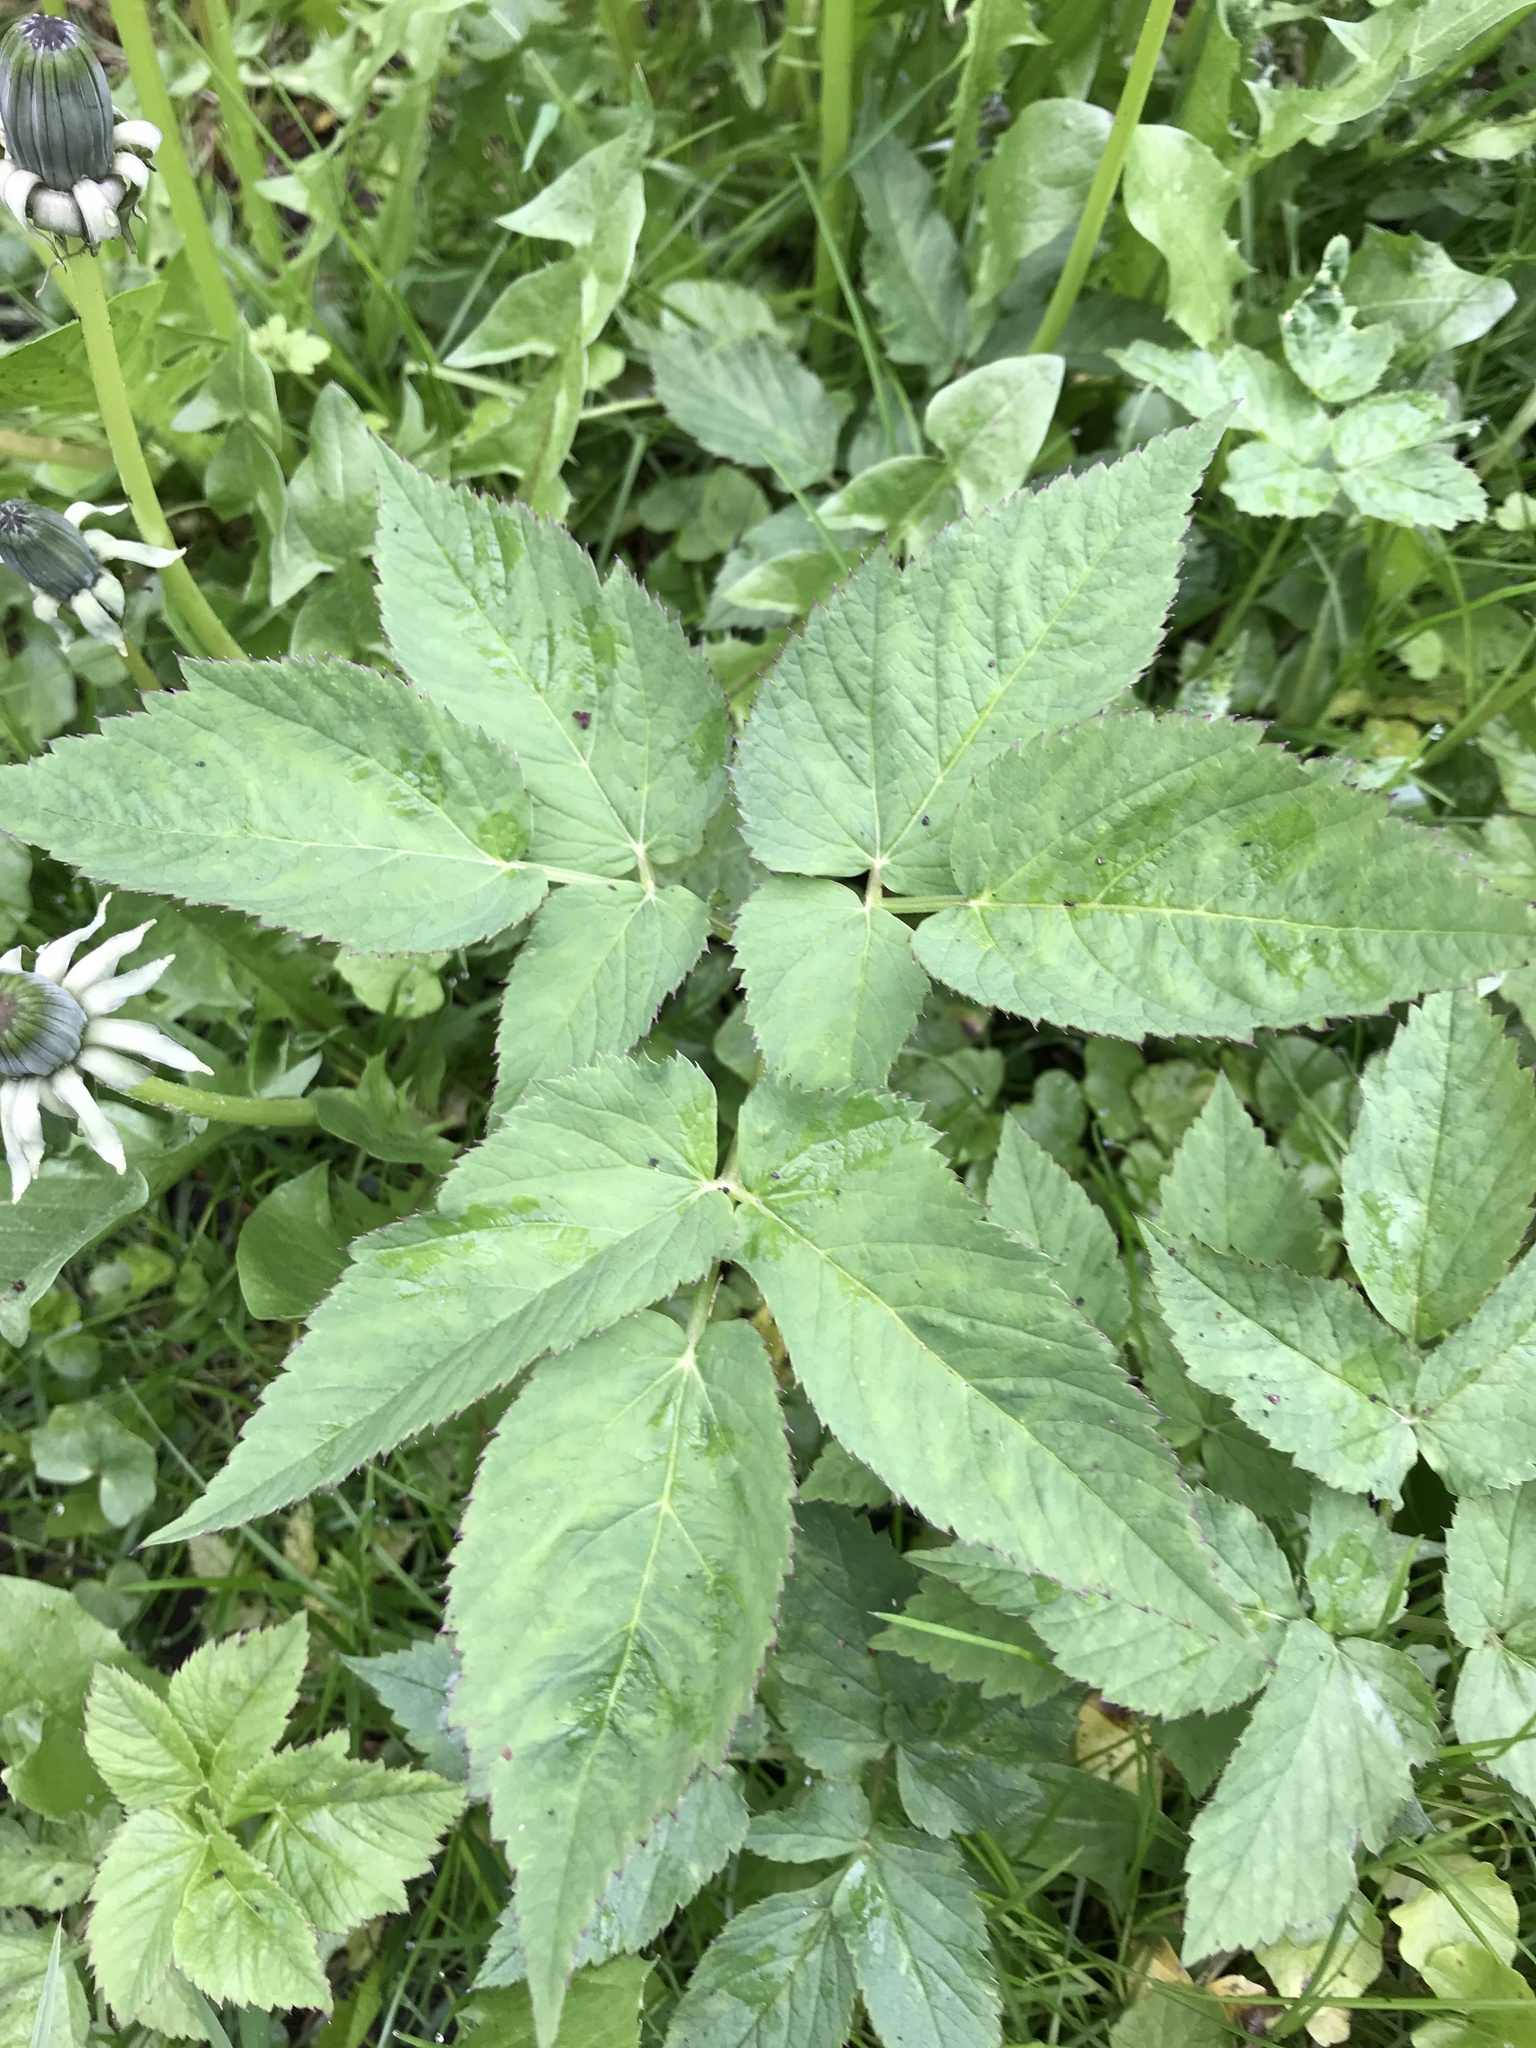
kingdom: Plantae
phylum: Tracheophyta
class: Magnoliopsida
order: Apiales
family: Apiaceae
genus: Aegopodium
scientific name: Aegopodium podagraria
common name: Ground-elder
